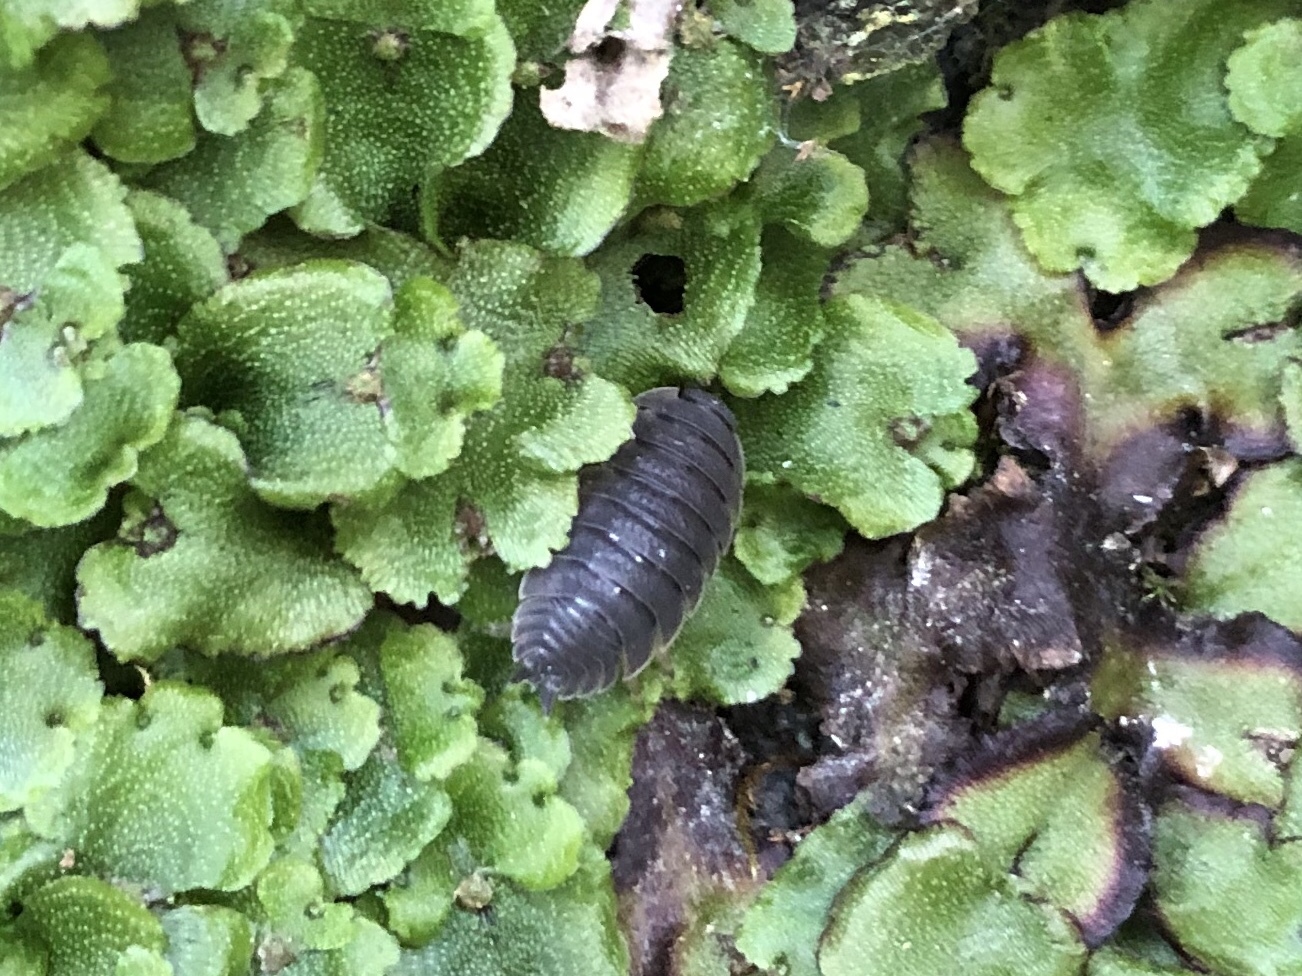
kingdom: Animalia
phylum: Arthropoda
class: Malacostraca
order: Isopoda
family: Porcellionidae
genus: Porcellio
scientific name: Porcellio scaber
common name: Common rough woodlouse
